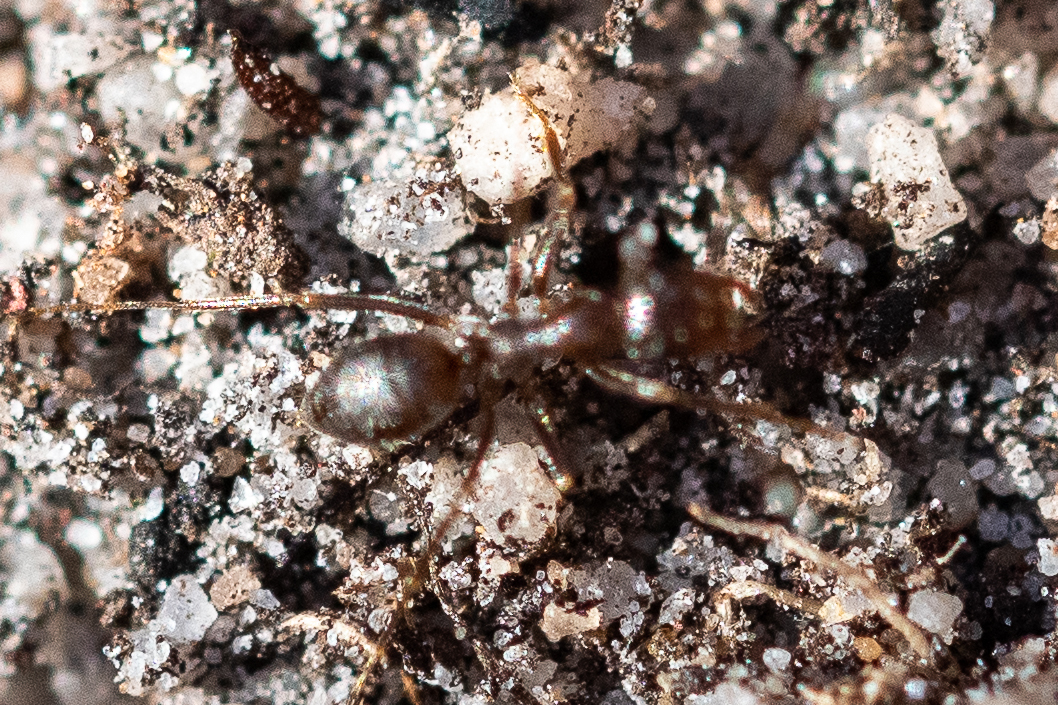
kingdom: Animalia
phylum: Arthropoda
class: Insecta
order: Hymenoptera
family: Formicidae
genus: Anoplolepis
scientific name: Anoplolepis steingroeveri
